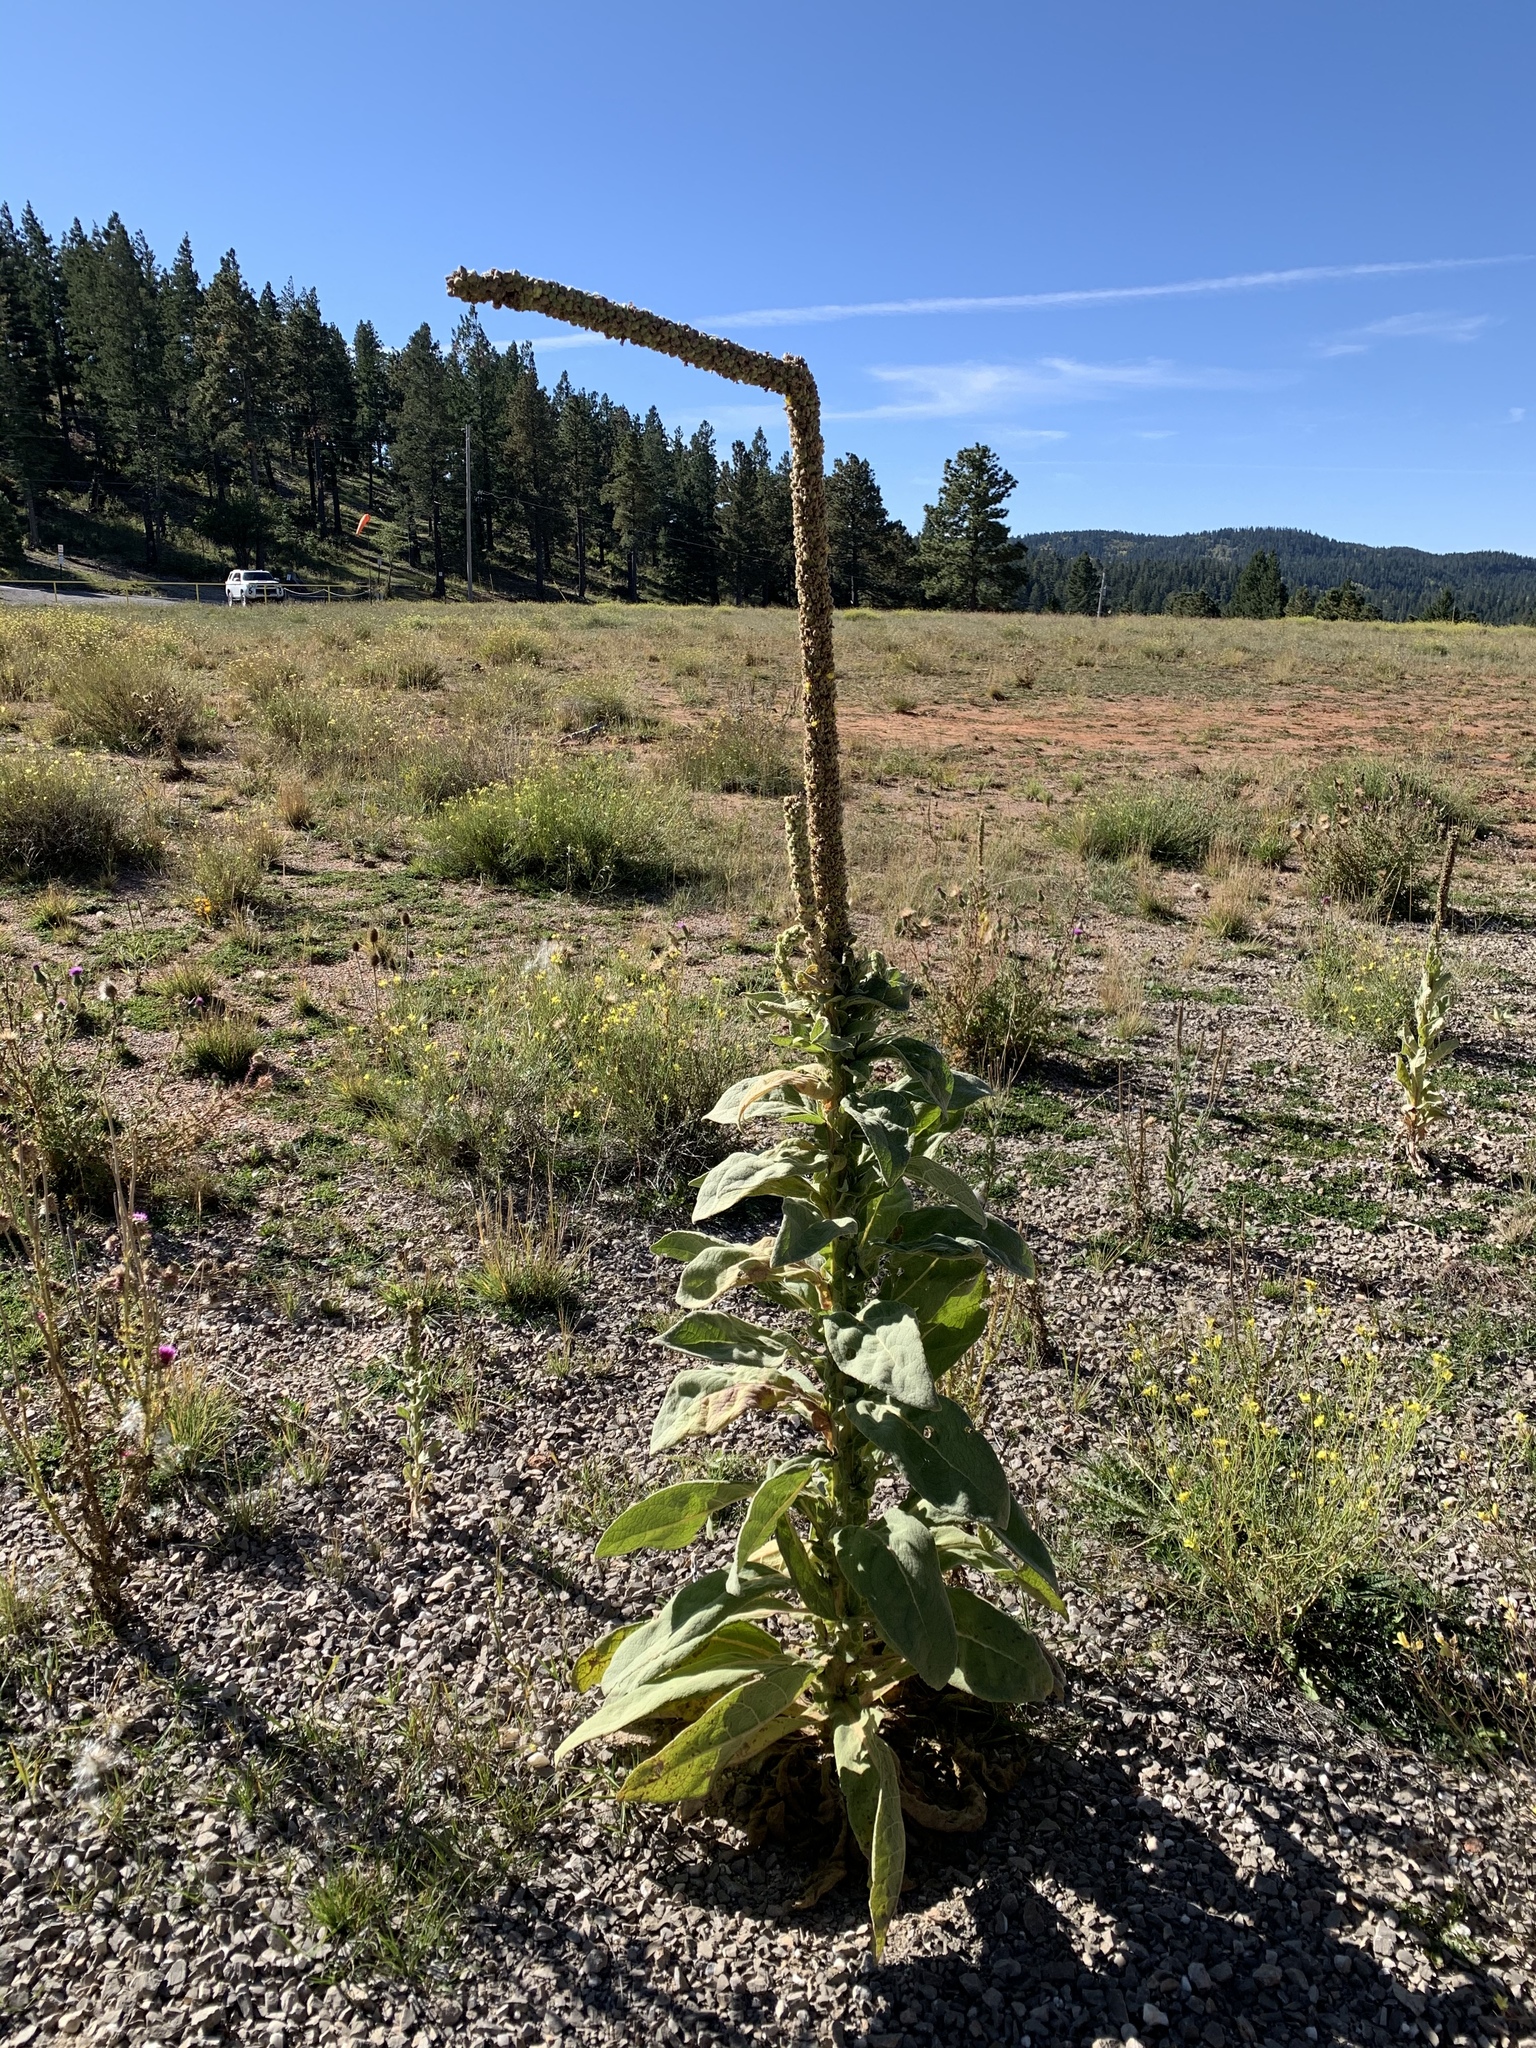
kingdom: Plantae
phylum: Tracheophyta
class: Magnoliopsida
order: Lamiales
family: Scrophulariaceae
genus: Verbascum
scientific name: Verbascum thapsus
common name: Common mullein
